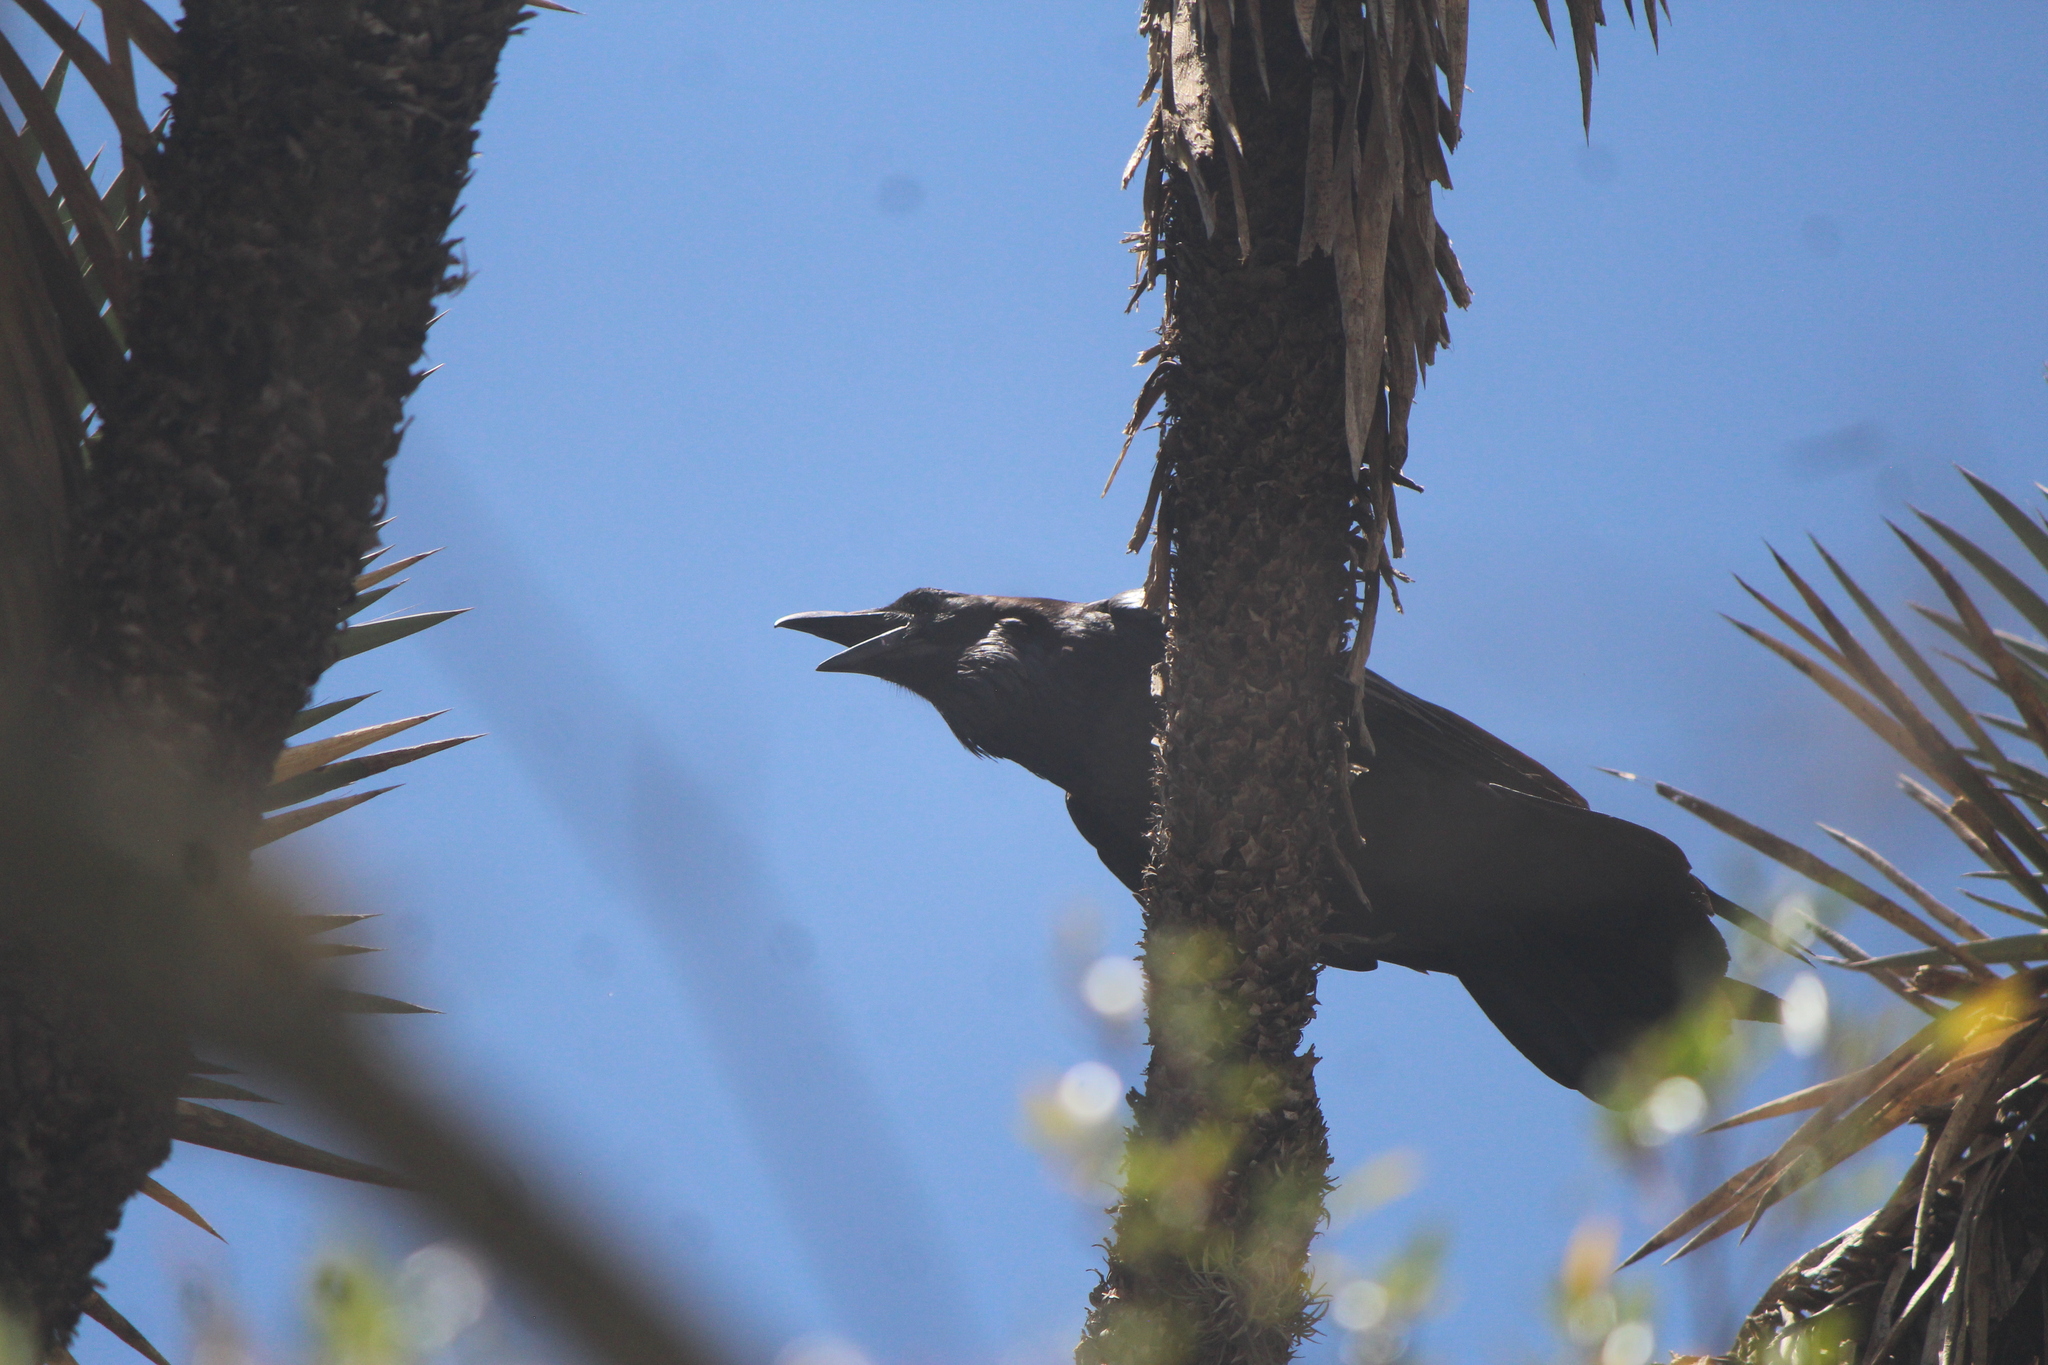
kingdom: Animalia
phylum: Chordata
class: Aves
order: Passeriformes
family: Corvidae
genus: Corvus
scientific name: Corvus corax
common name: Common raven
